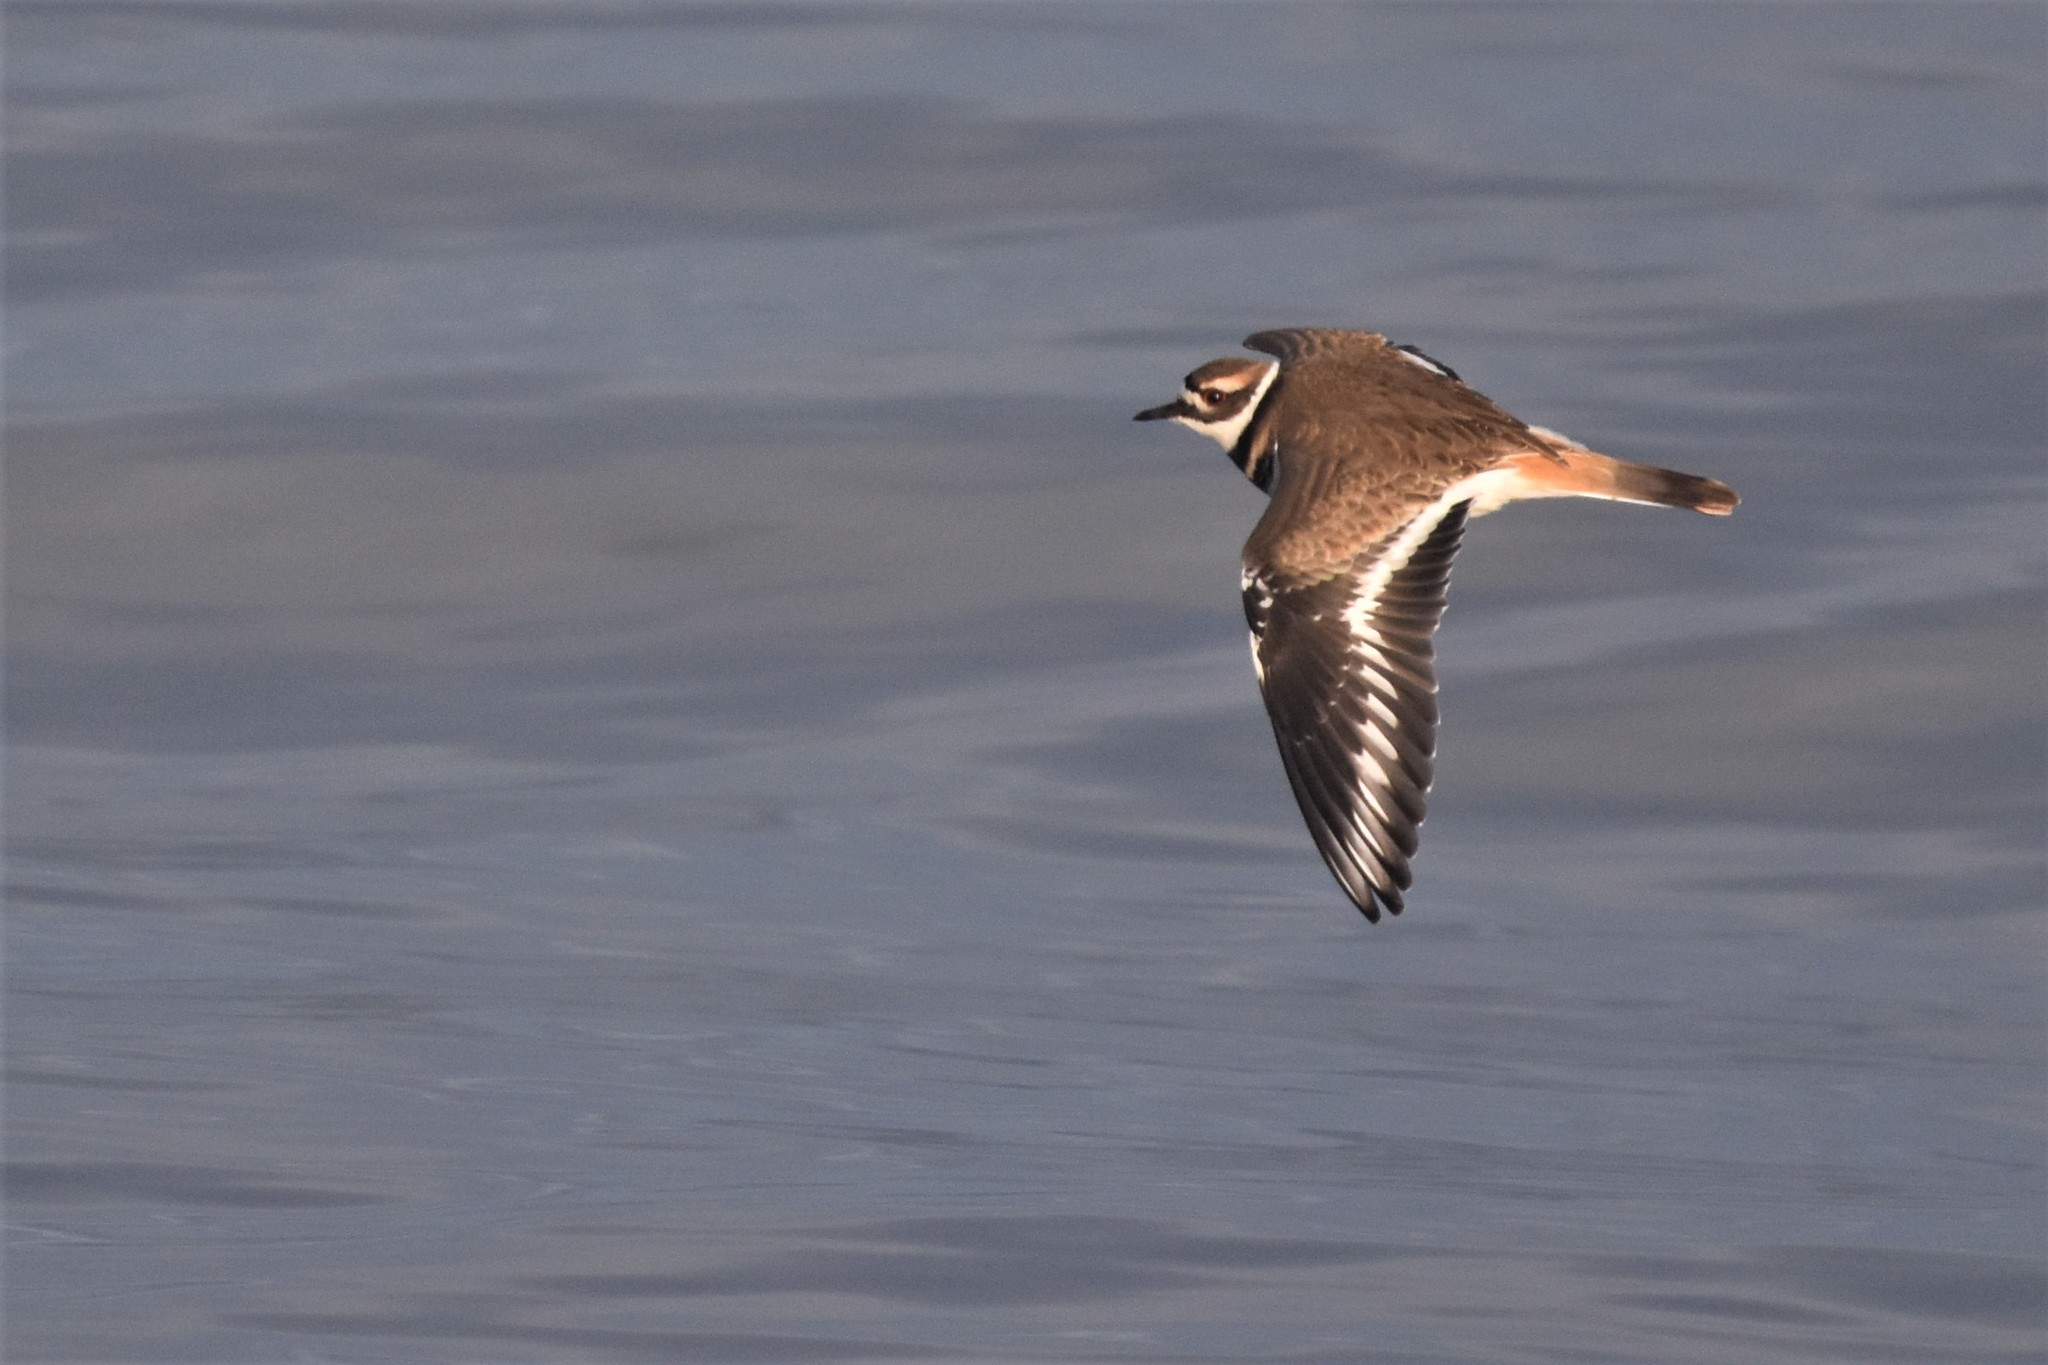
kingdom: Animalia
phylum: Chordata
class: Aves
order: Charadriiformes
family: Charadriidae
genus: Charadrius
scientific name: Charadrius vociferus
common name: Killdeer
